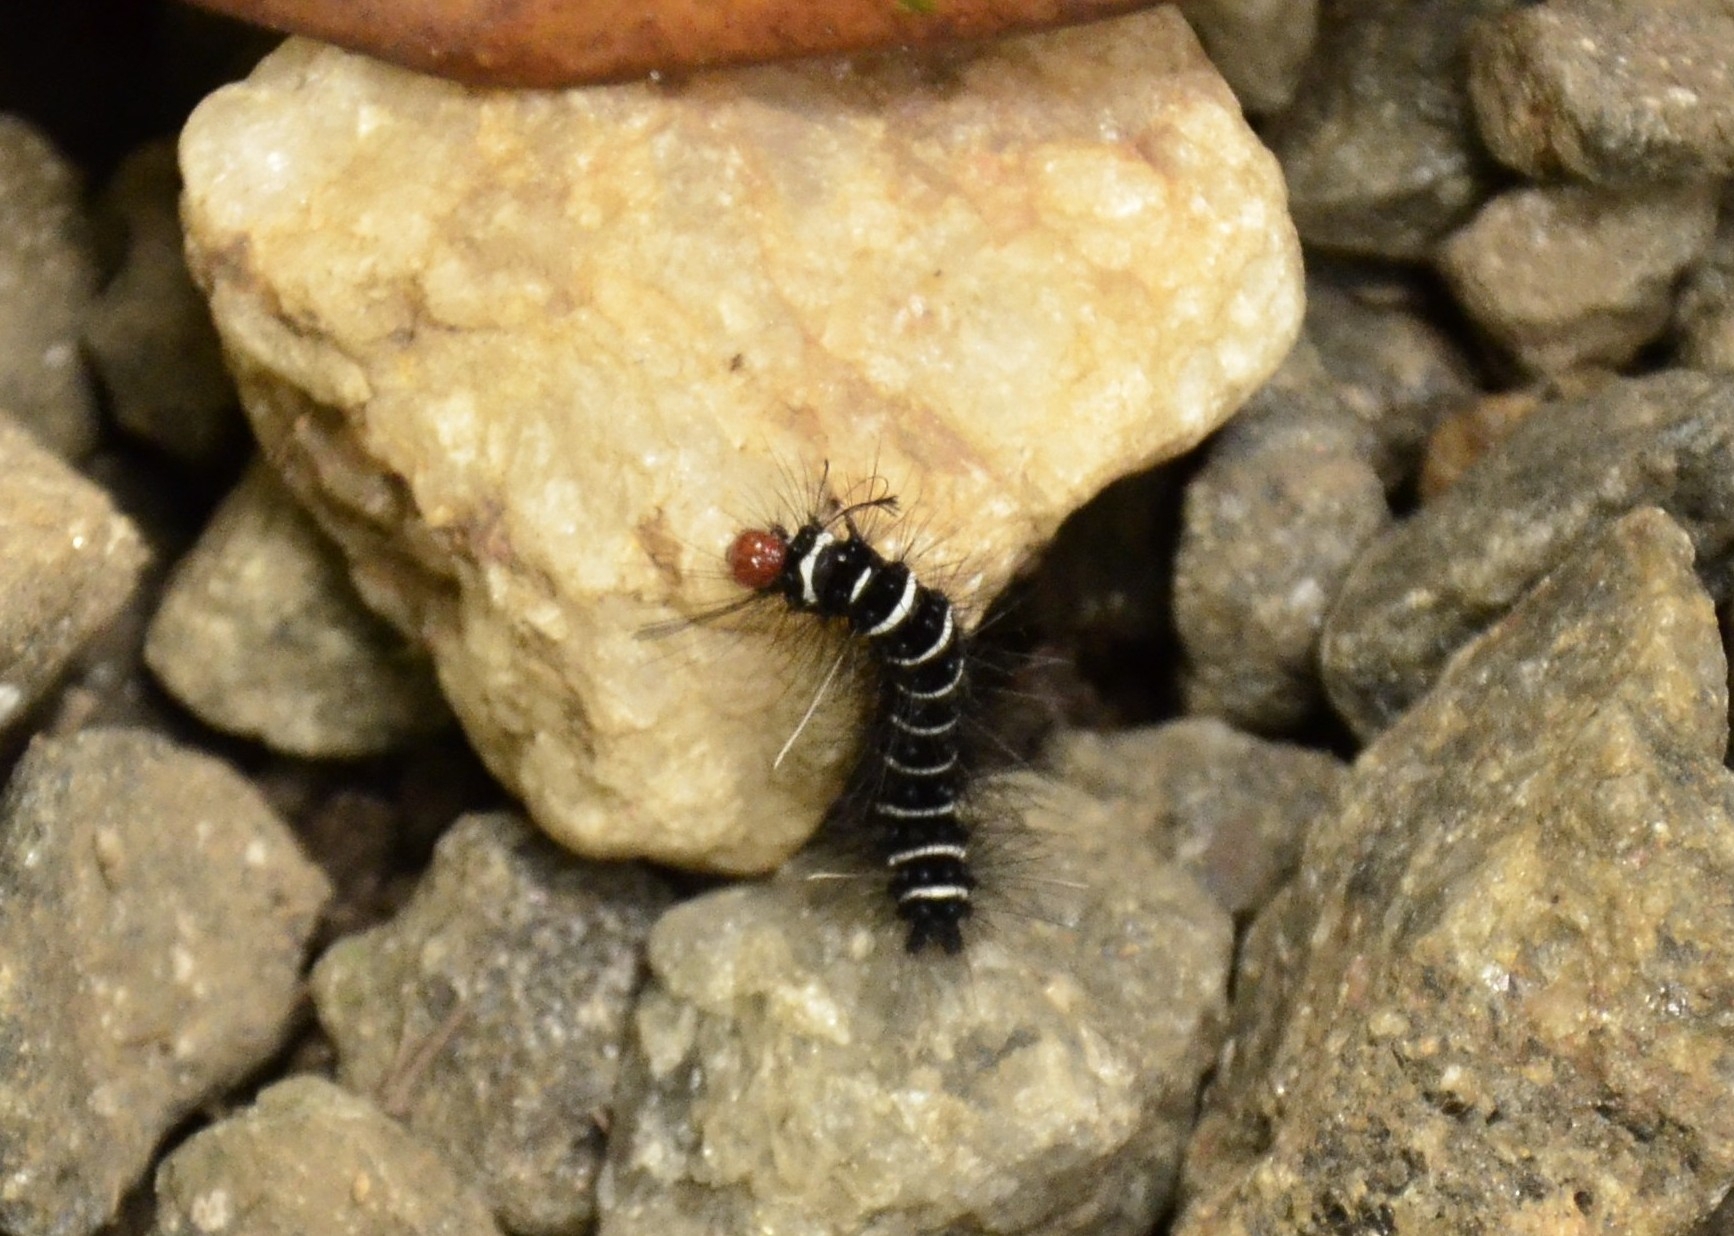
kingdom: Animalia
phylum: Arthropoda
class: Insecta
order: Lepidoptera
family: Erebidae
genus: Nyctemera
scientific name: Nyctemera coleta
